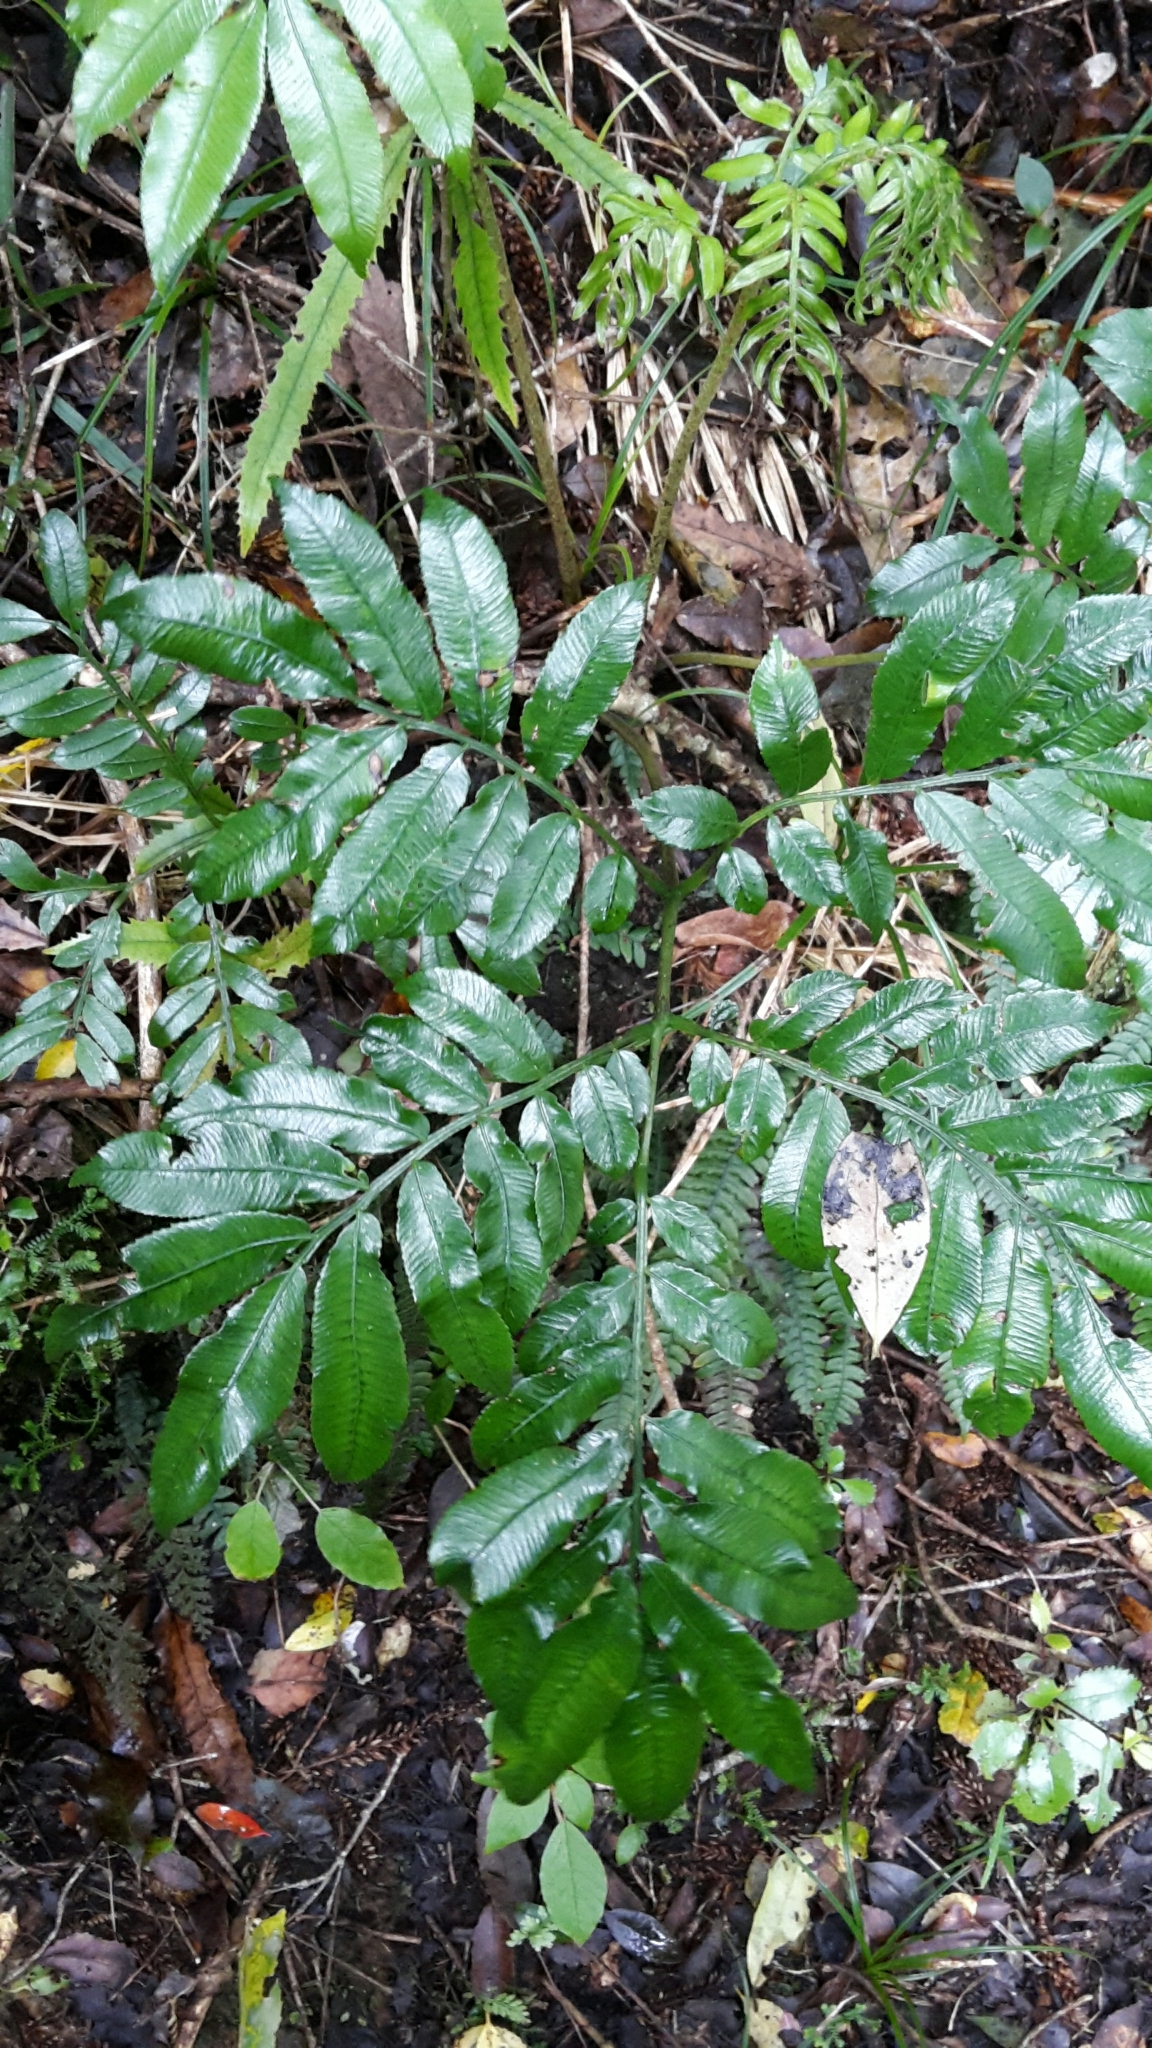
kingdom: Plantae
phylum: Tracheophyta
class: Polypodiopsida
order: Marattiales
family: Marattiaceae
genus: Ptisana
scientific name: Ptisana salicina
